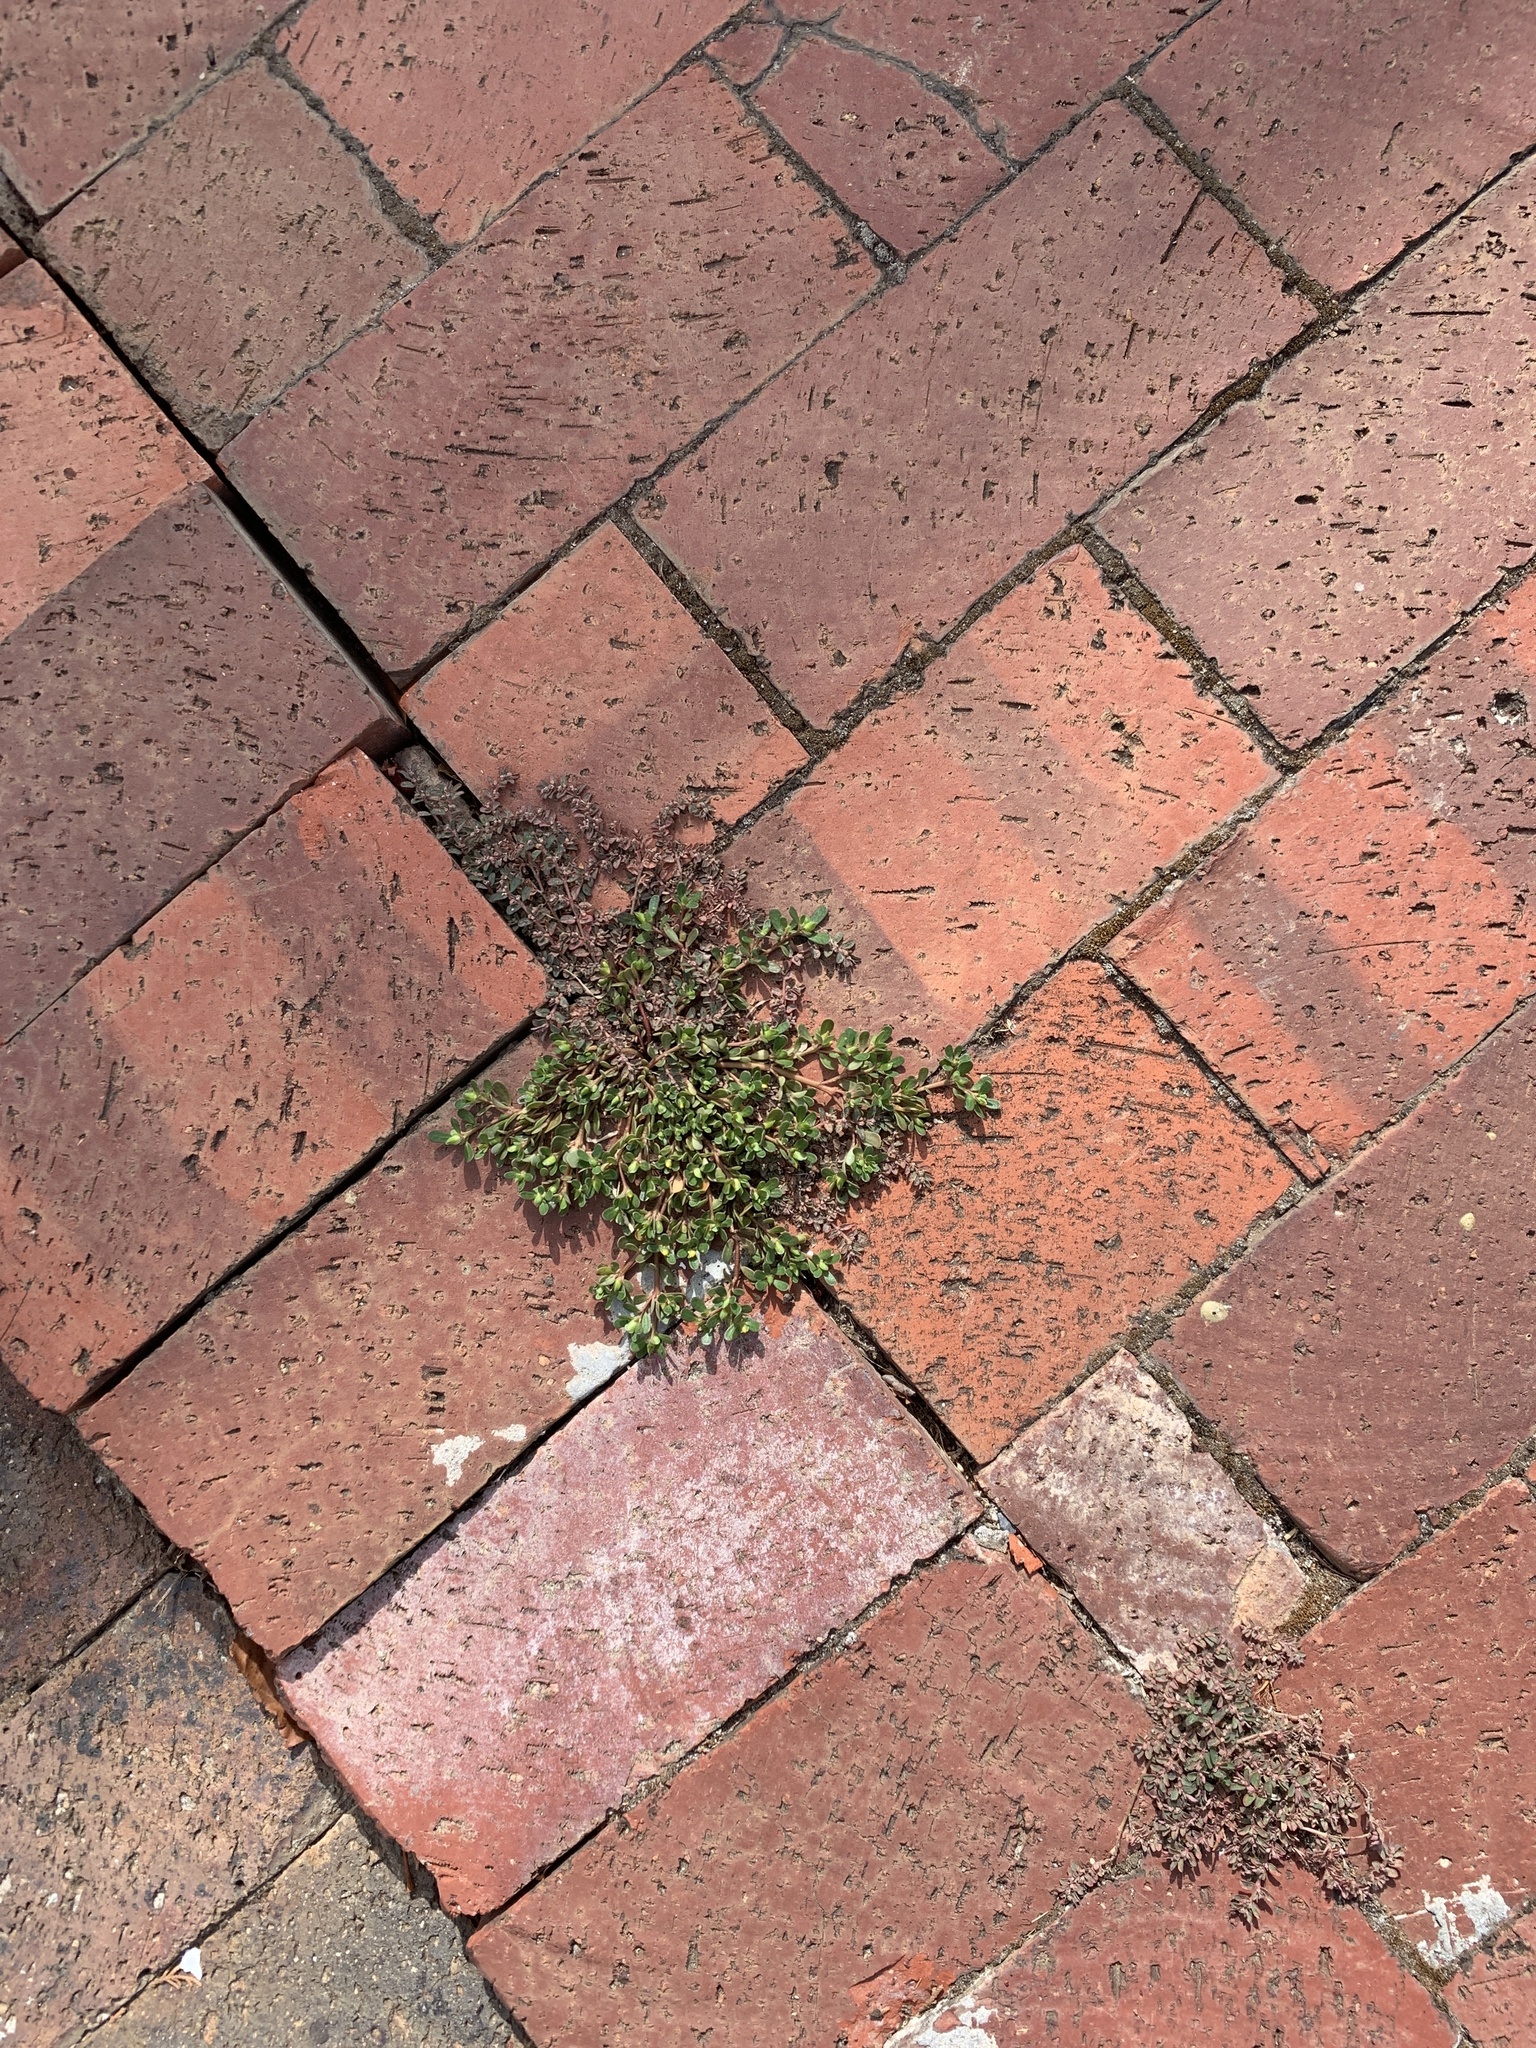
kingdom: Plantae
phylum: Tracheophyta
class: Magnoliopsida
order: Caryophyllales
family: Portulacaceae
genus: Portulaca
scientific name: Portulaca oleracea
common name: Common purslane
